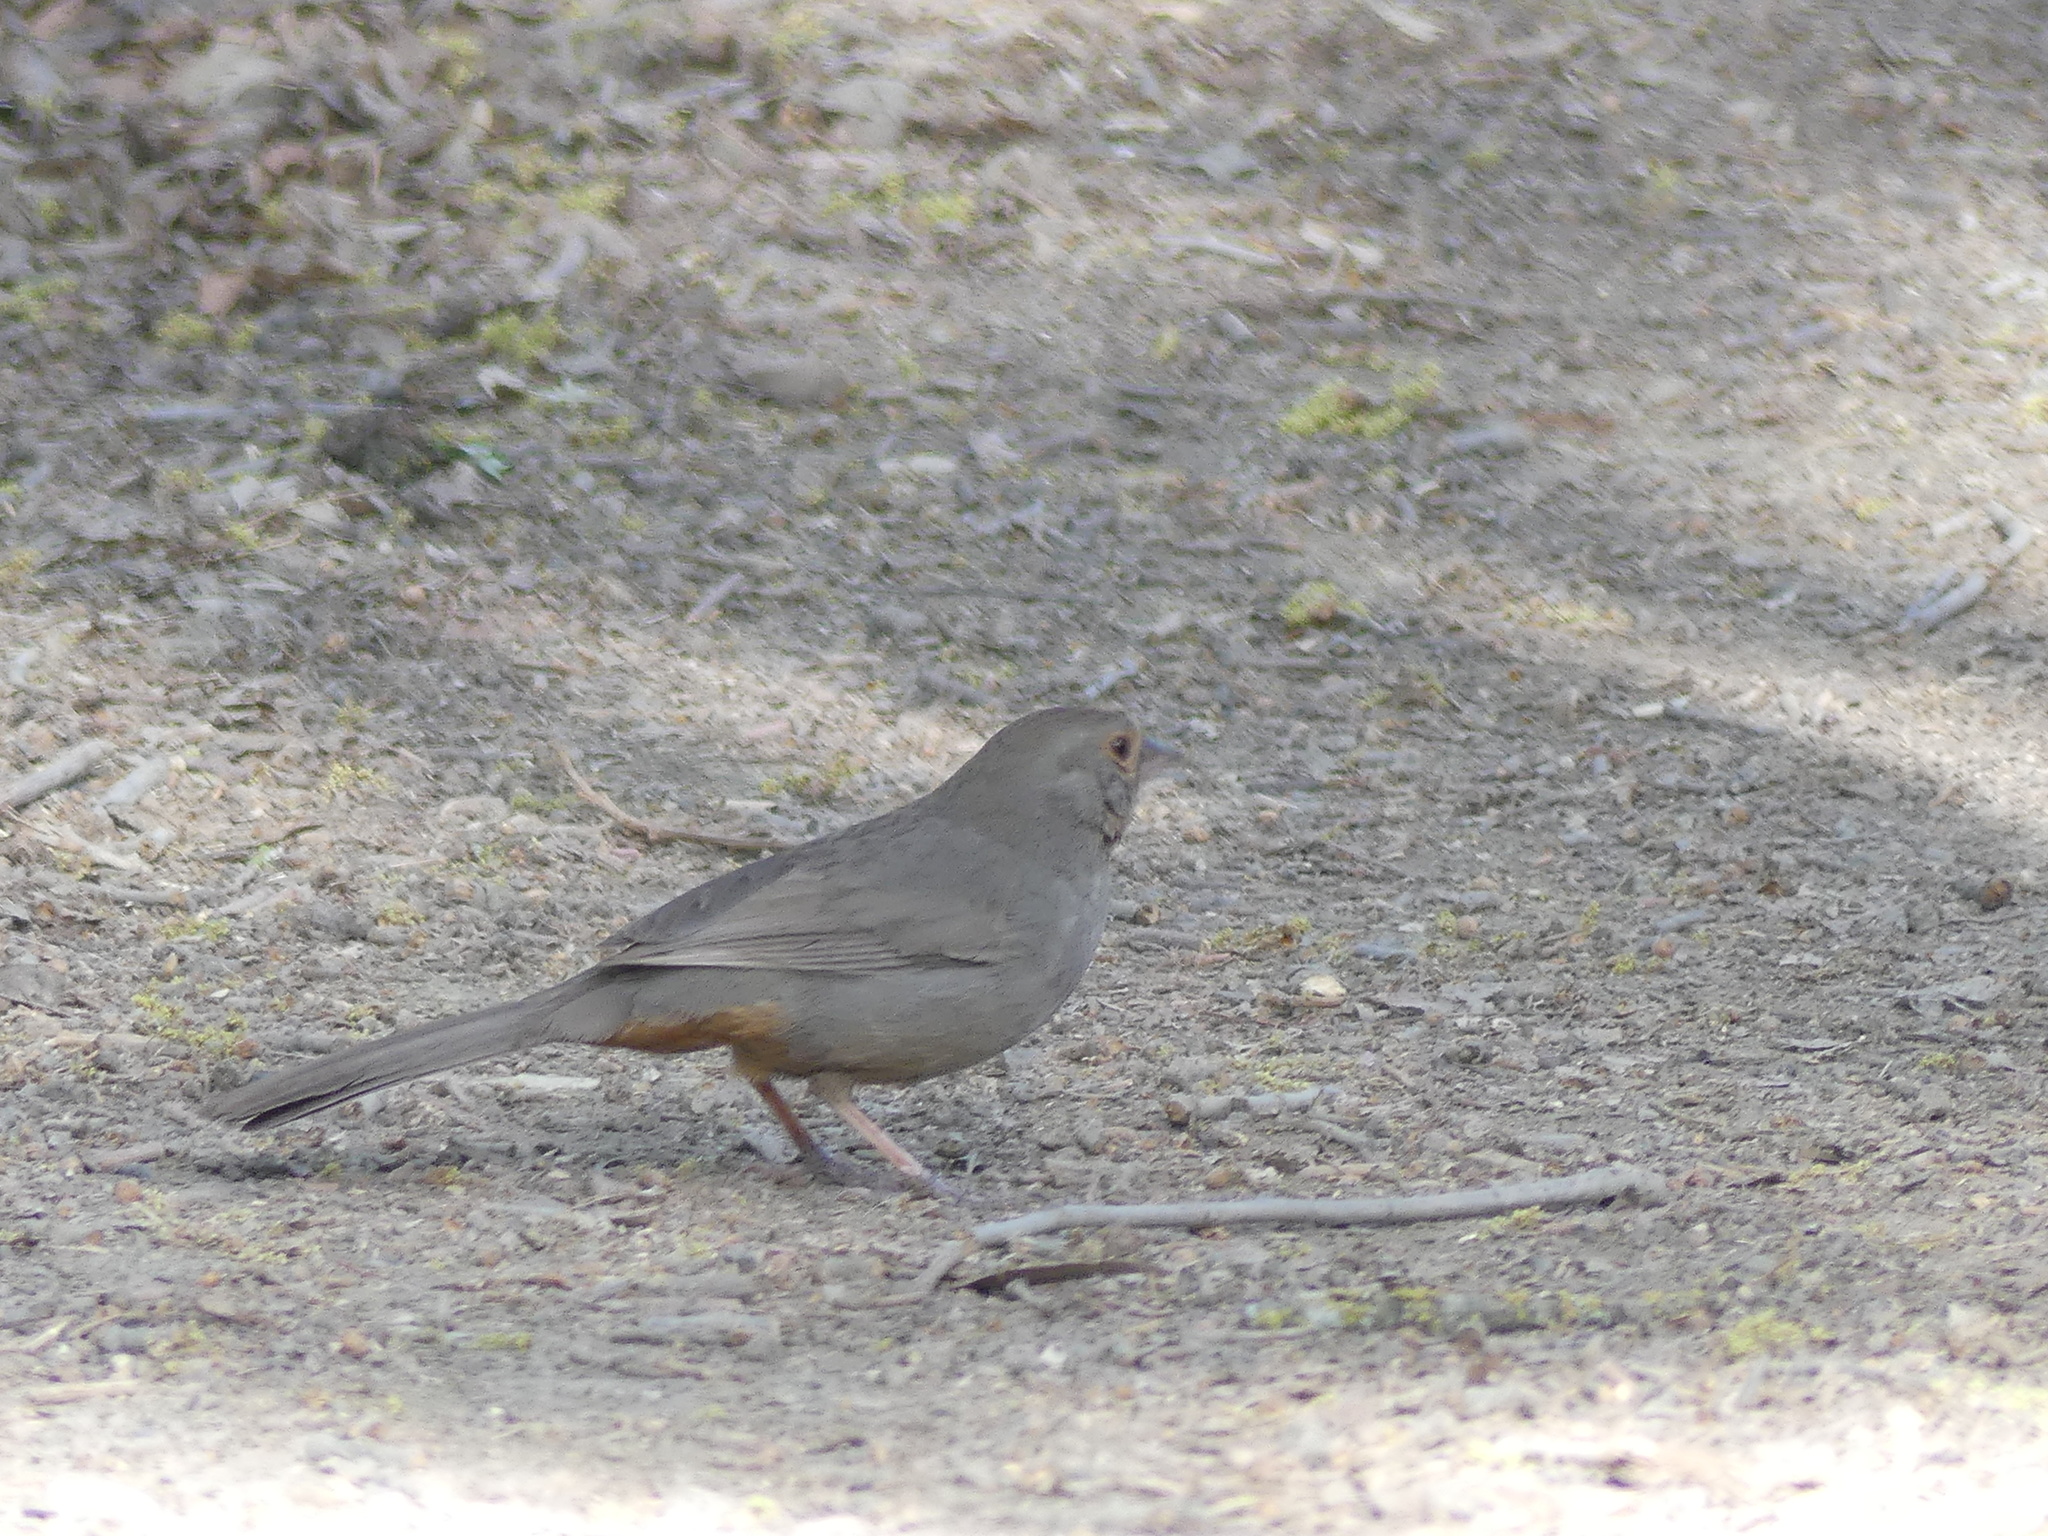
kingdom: Animalia
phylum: Chordata
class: Aves
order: Passeriformes
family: Passerellidae
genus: Melozone
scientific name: Melozone crissalis
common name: California towhee
